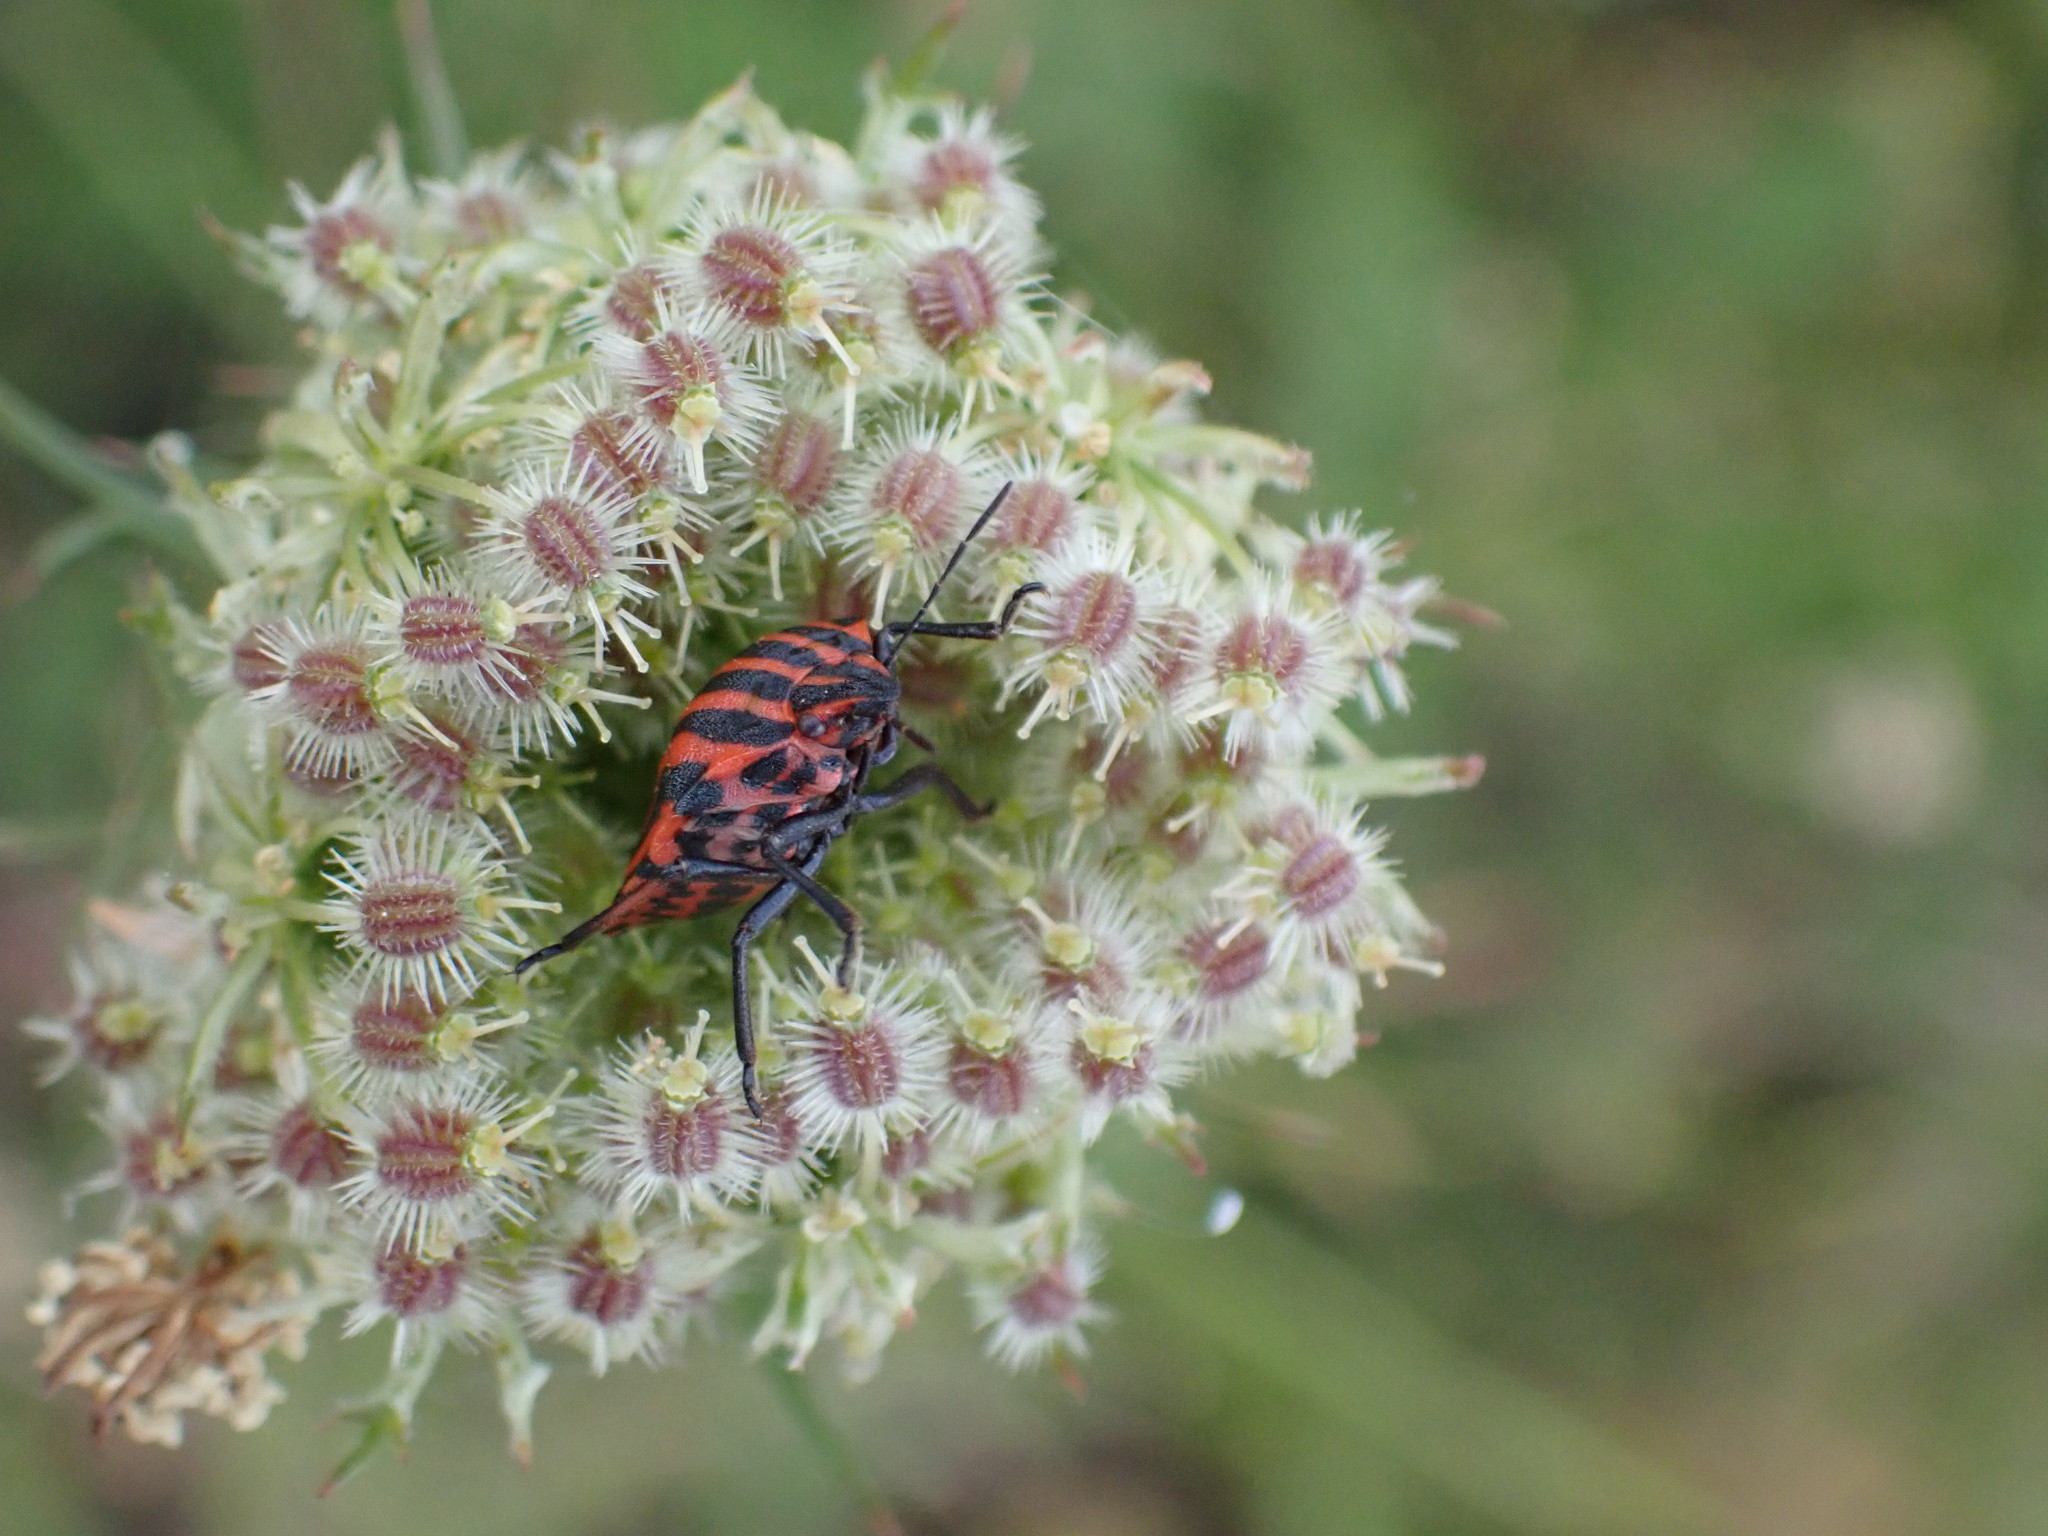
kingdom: Animalia
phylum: Arthropoda
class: Insecta
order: Hemiptera
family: Pentatomidae
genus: Graphosoma
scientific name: Graphosoma italicum
